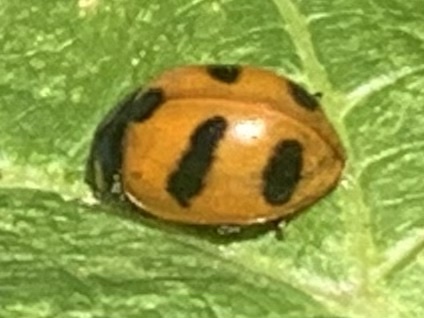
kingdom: Animalia
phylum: Arthropoda
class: Insecta
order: Coleoptera
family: Coccinellidae
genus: Coccinella
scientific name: Coccinella monticola
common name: Mountain lady beetle
